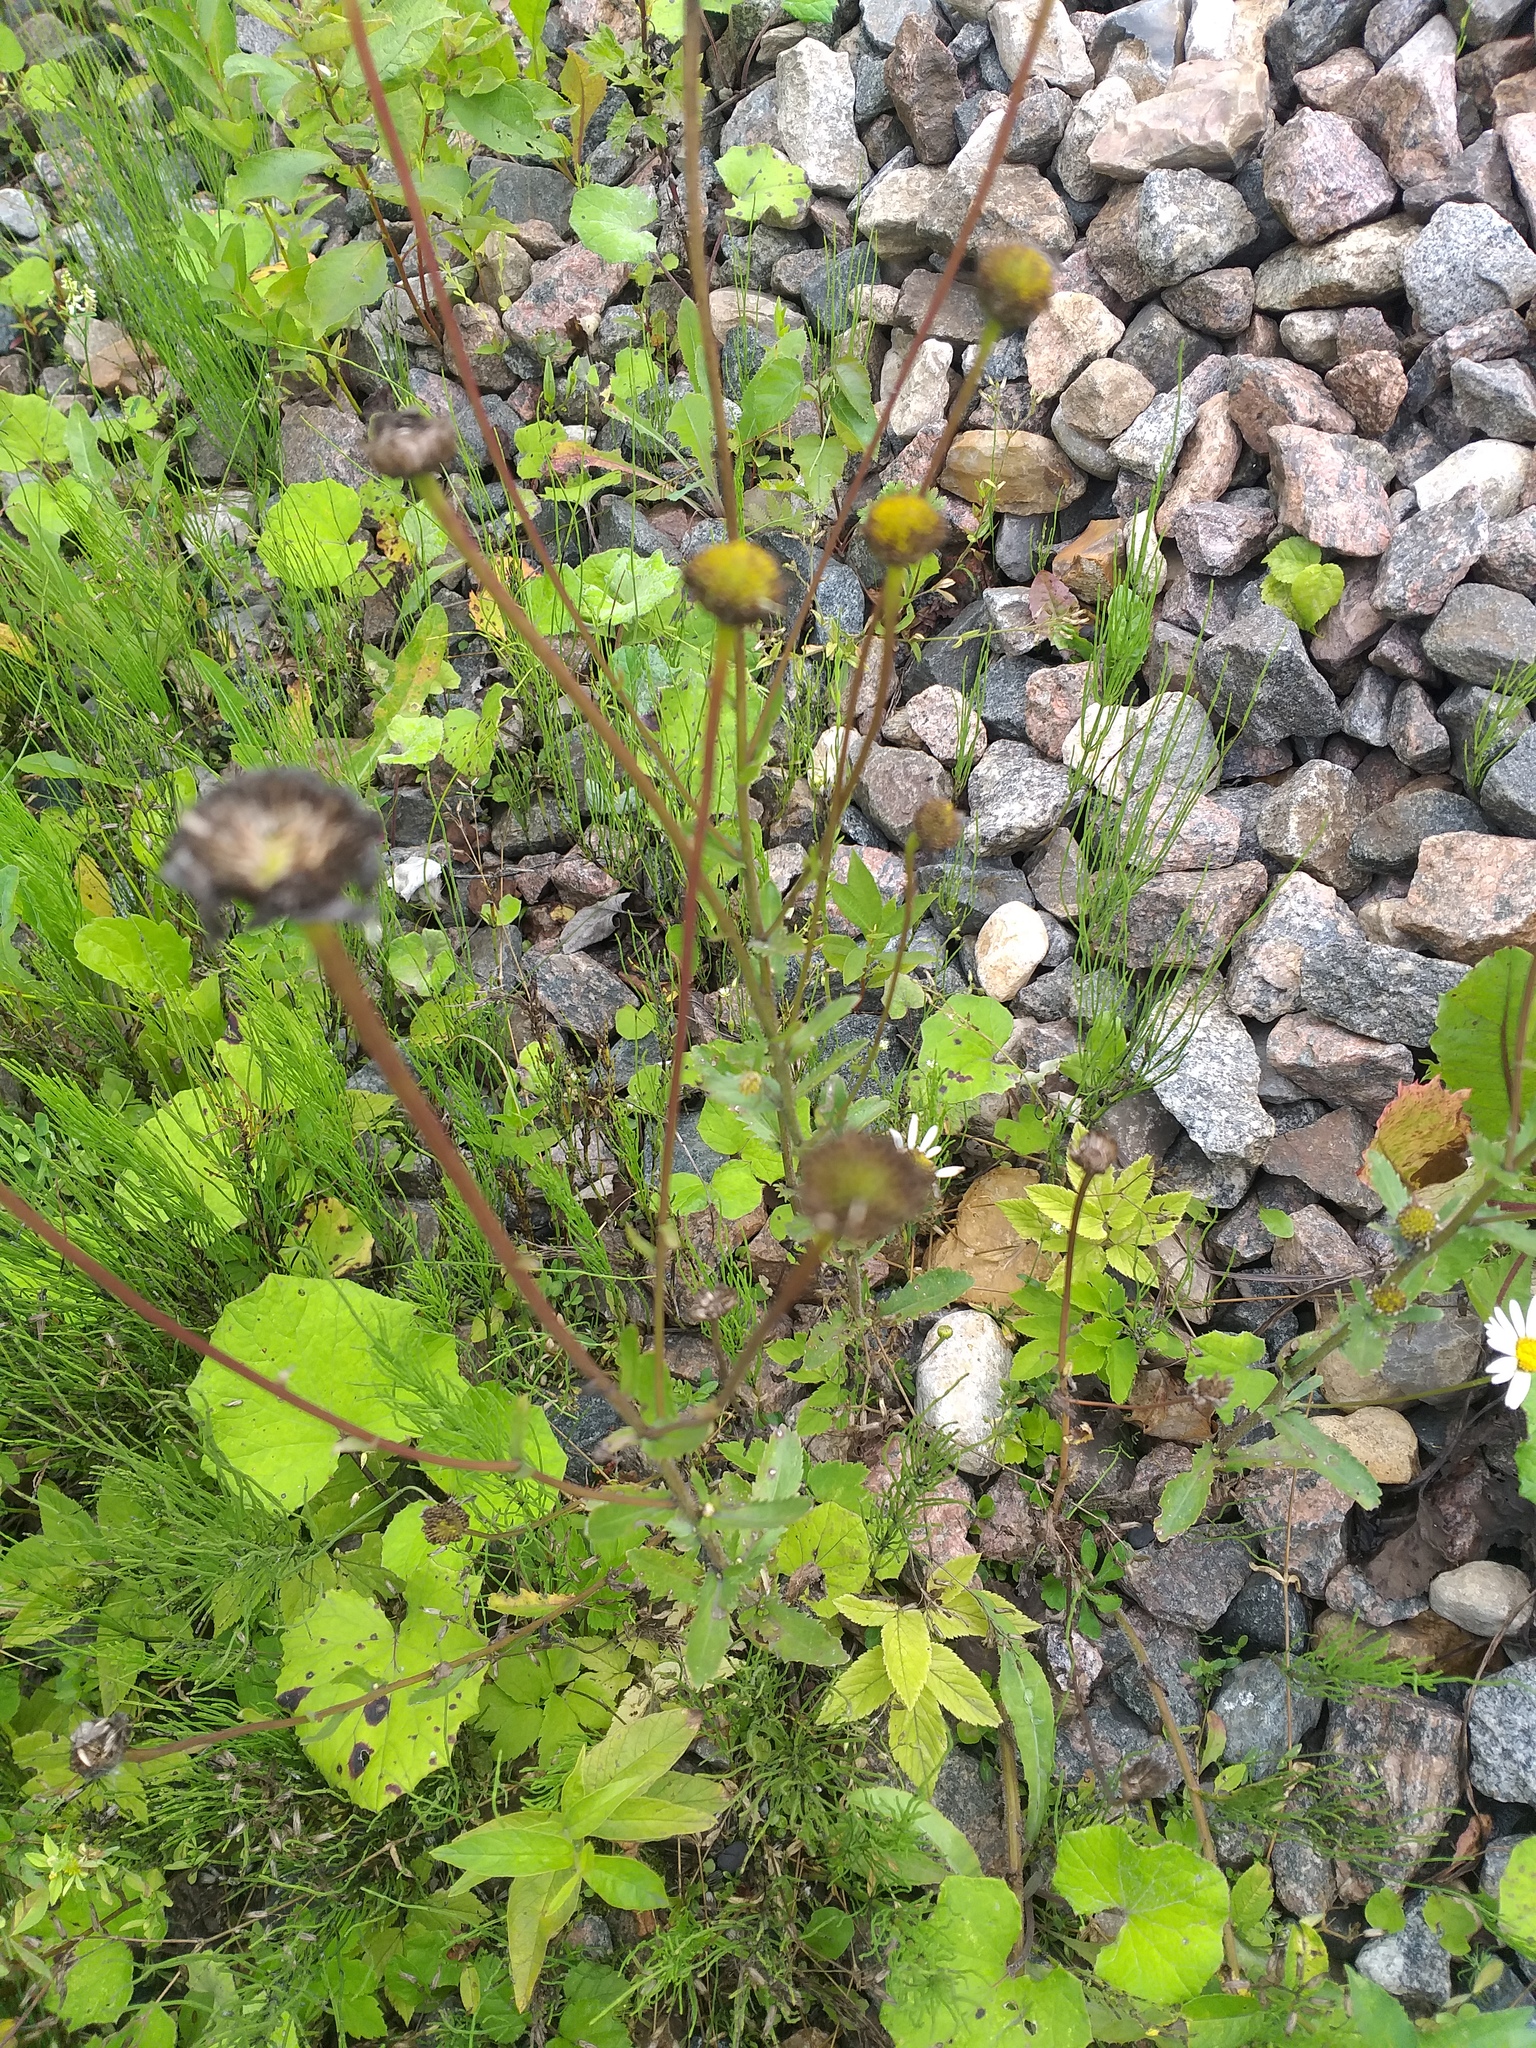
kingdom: Plantae
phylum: Tracheophyta
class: Magnoliopsida
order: Asterales
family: Asteraceae
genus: Leucanthemum
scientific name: Leucanthemum vulgare
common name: Oxeye daisy
